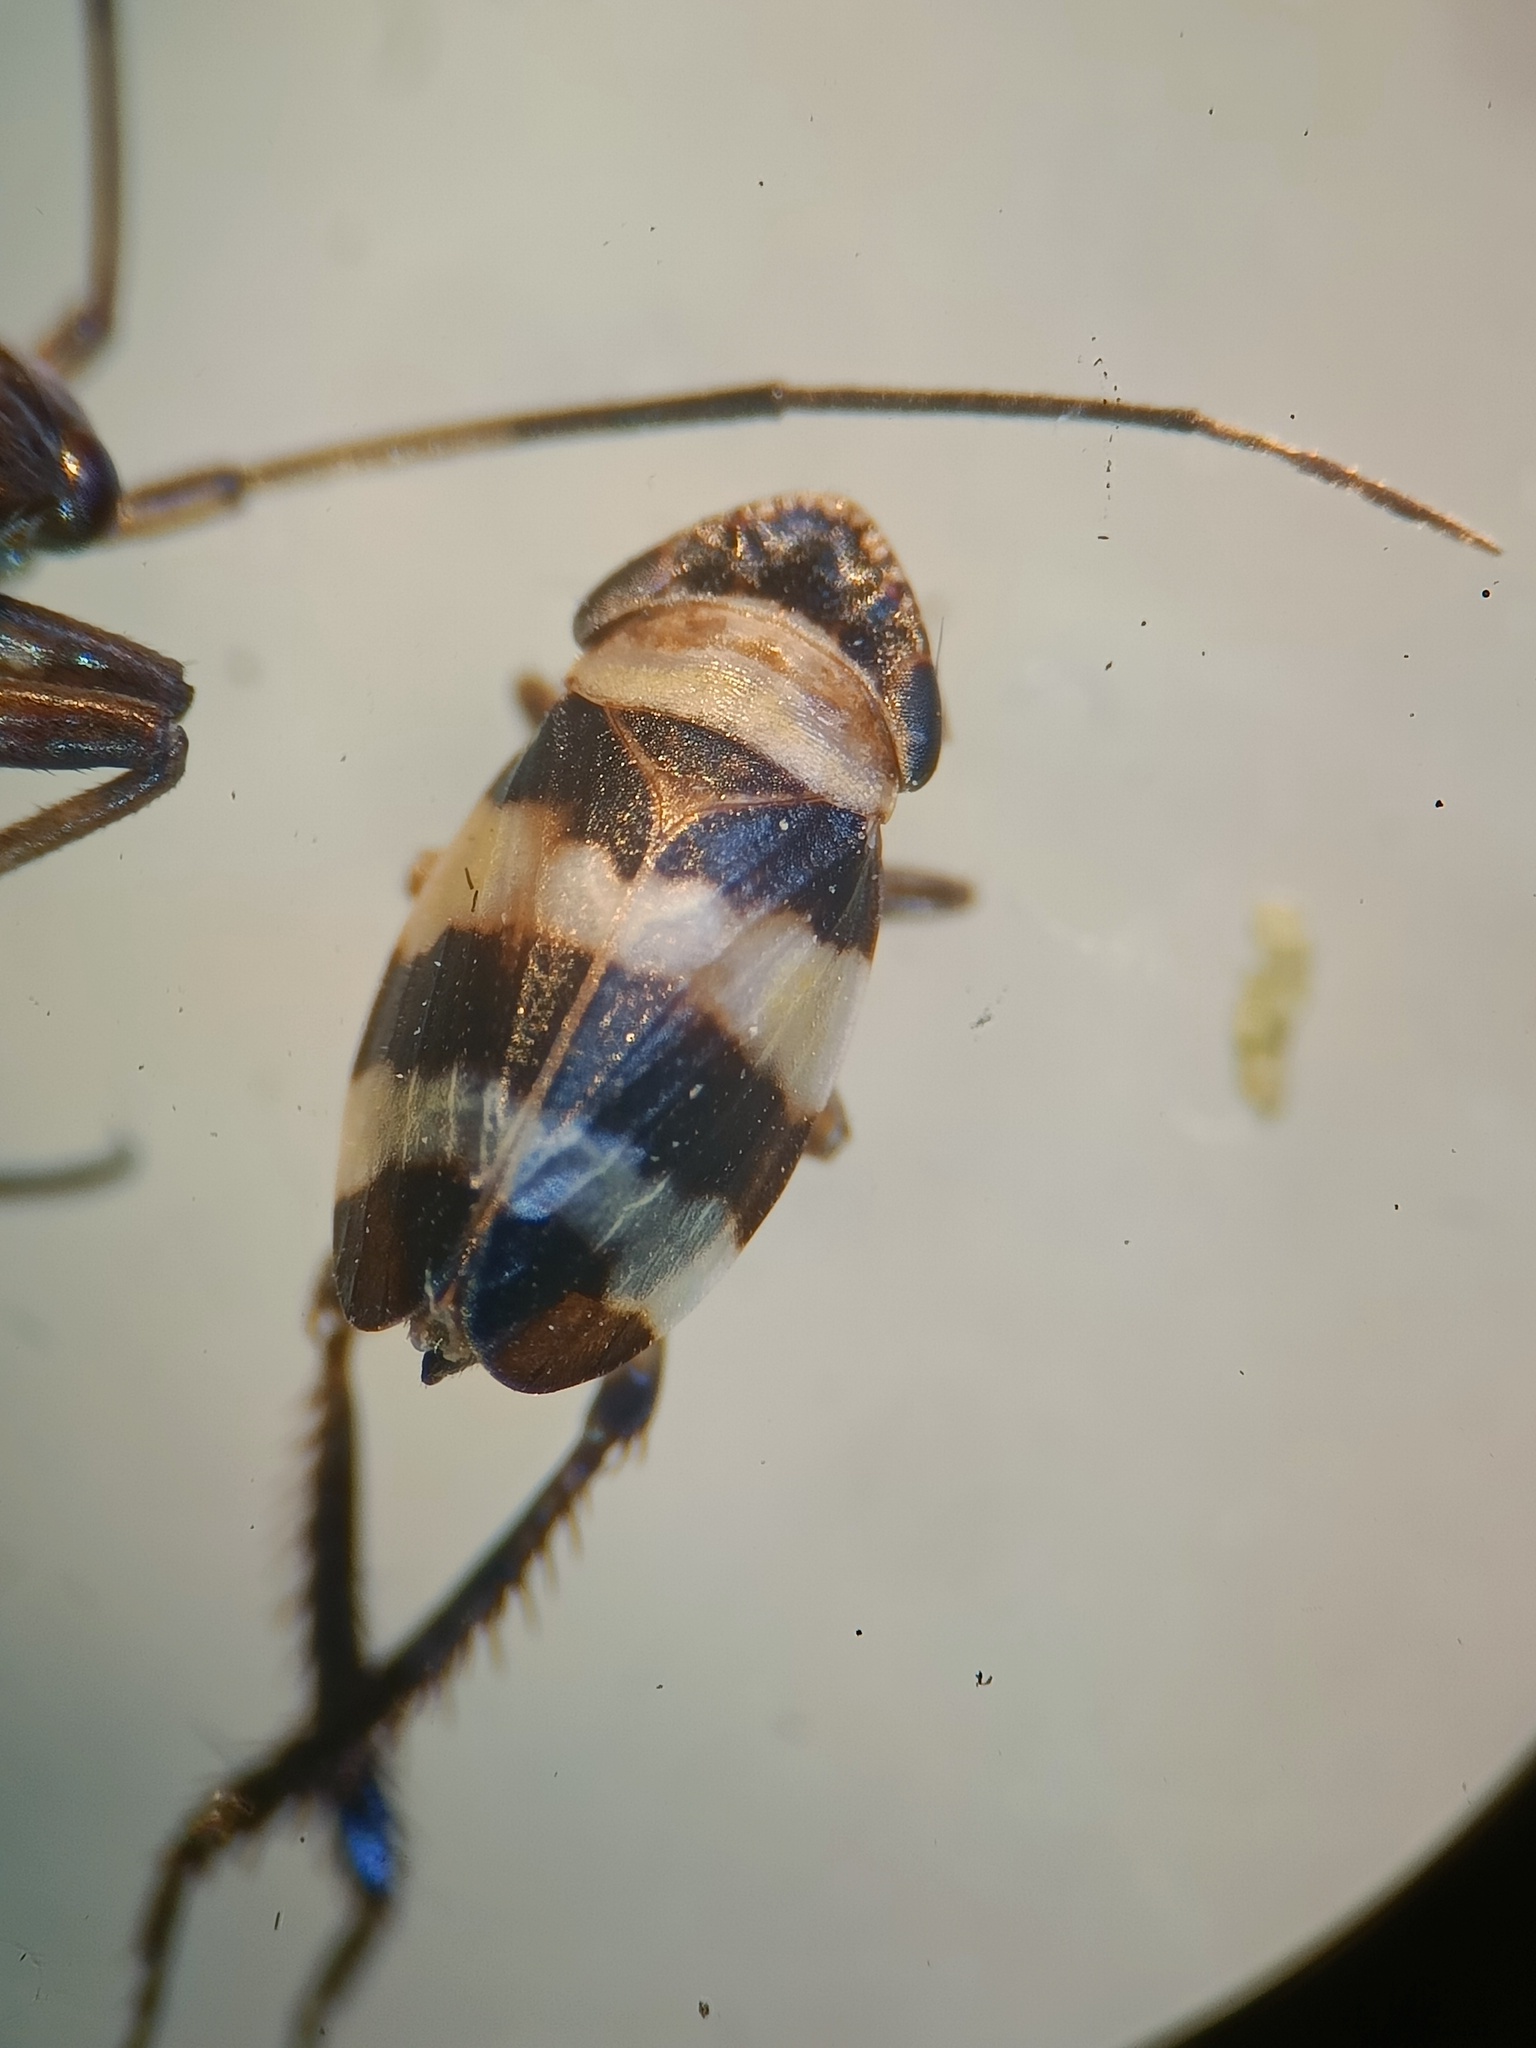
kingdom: Animalia
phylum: Arthropoda
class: Insecta
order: Hemiptera
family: Cicadellidae
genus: Planaphrodes
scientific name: Planaphrodes bifasciata
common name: Planthopper
